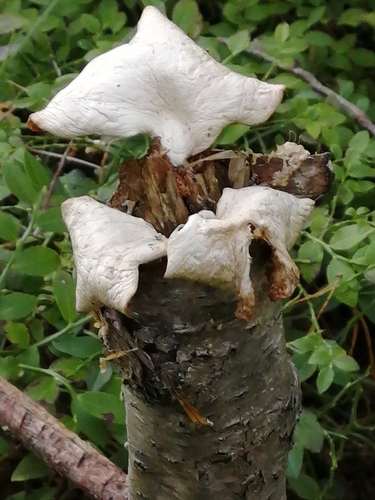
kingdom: Fungi
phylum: Basidiomycota
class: Agaricomycetes
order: Agaricales
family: Pleurotaceae
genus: Pleurotus
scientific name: Pleurotus ostreatus
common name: Oyster mushroom
